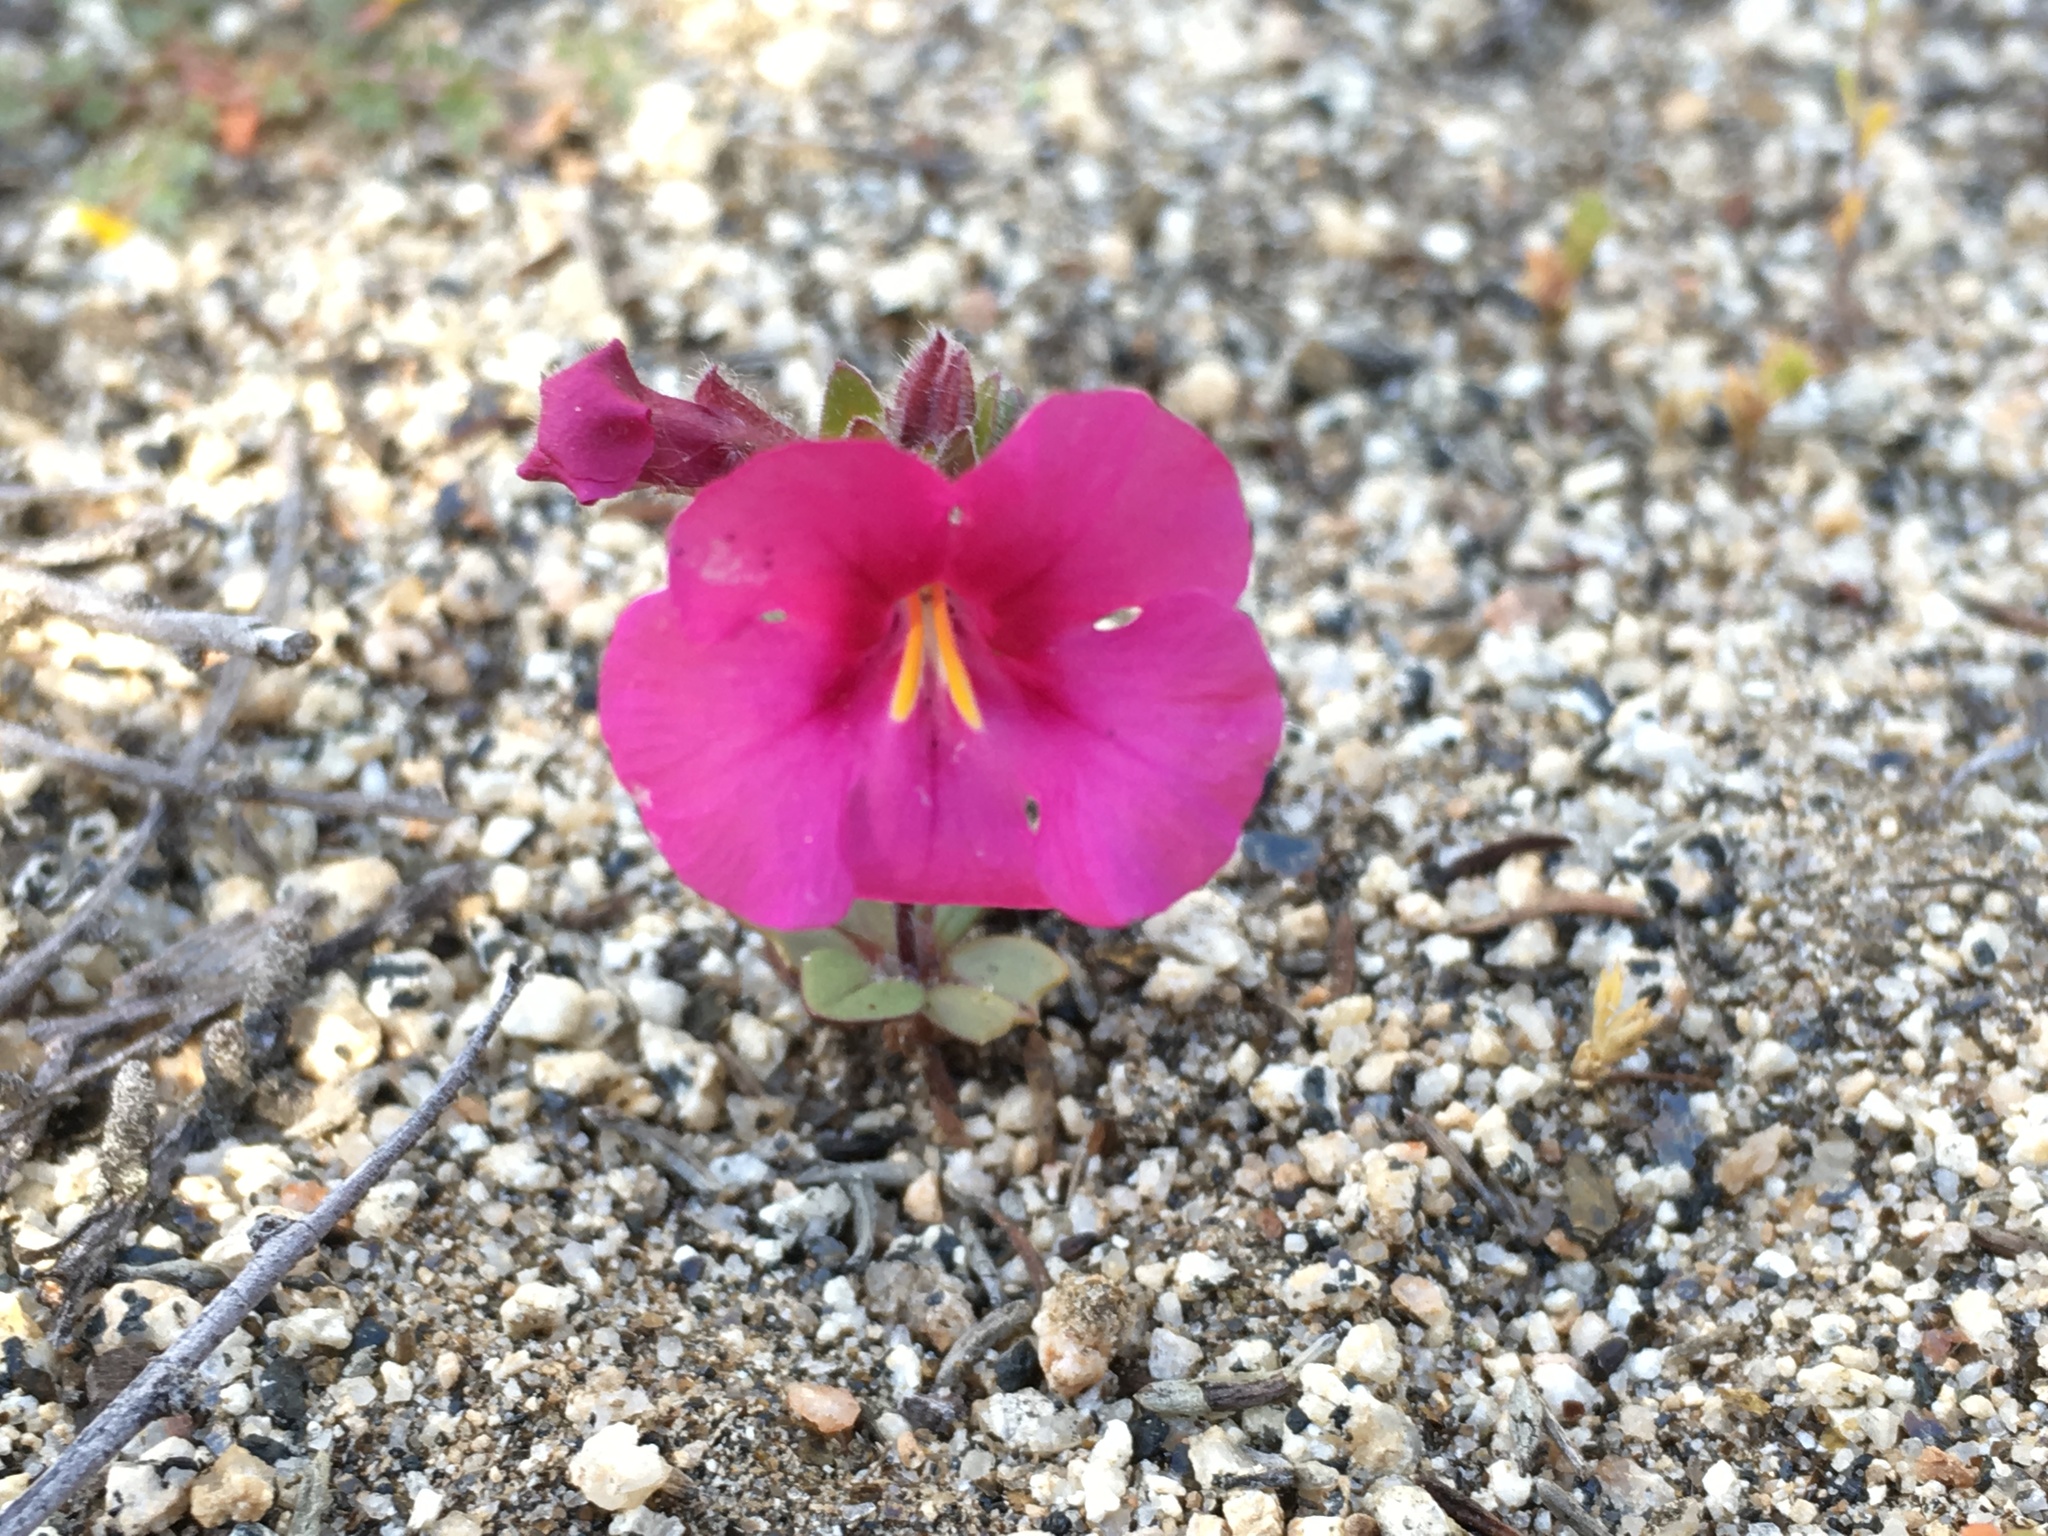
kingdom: Plantae
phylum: Tracheophyta
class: Magnoliopsida
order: Lamiales
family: Phrymaceae
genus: Diplacus
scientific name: Diplacus fremontii
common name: Fremont's monkey-flower
